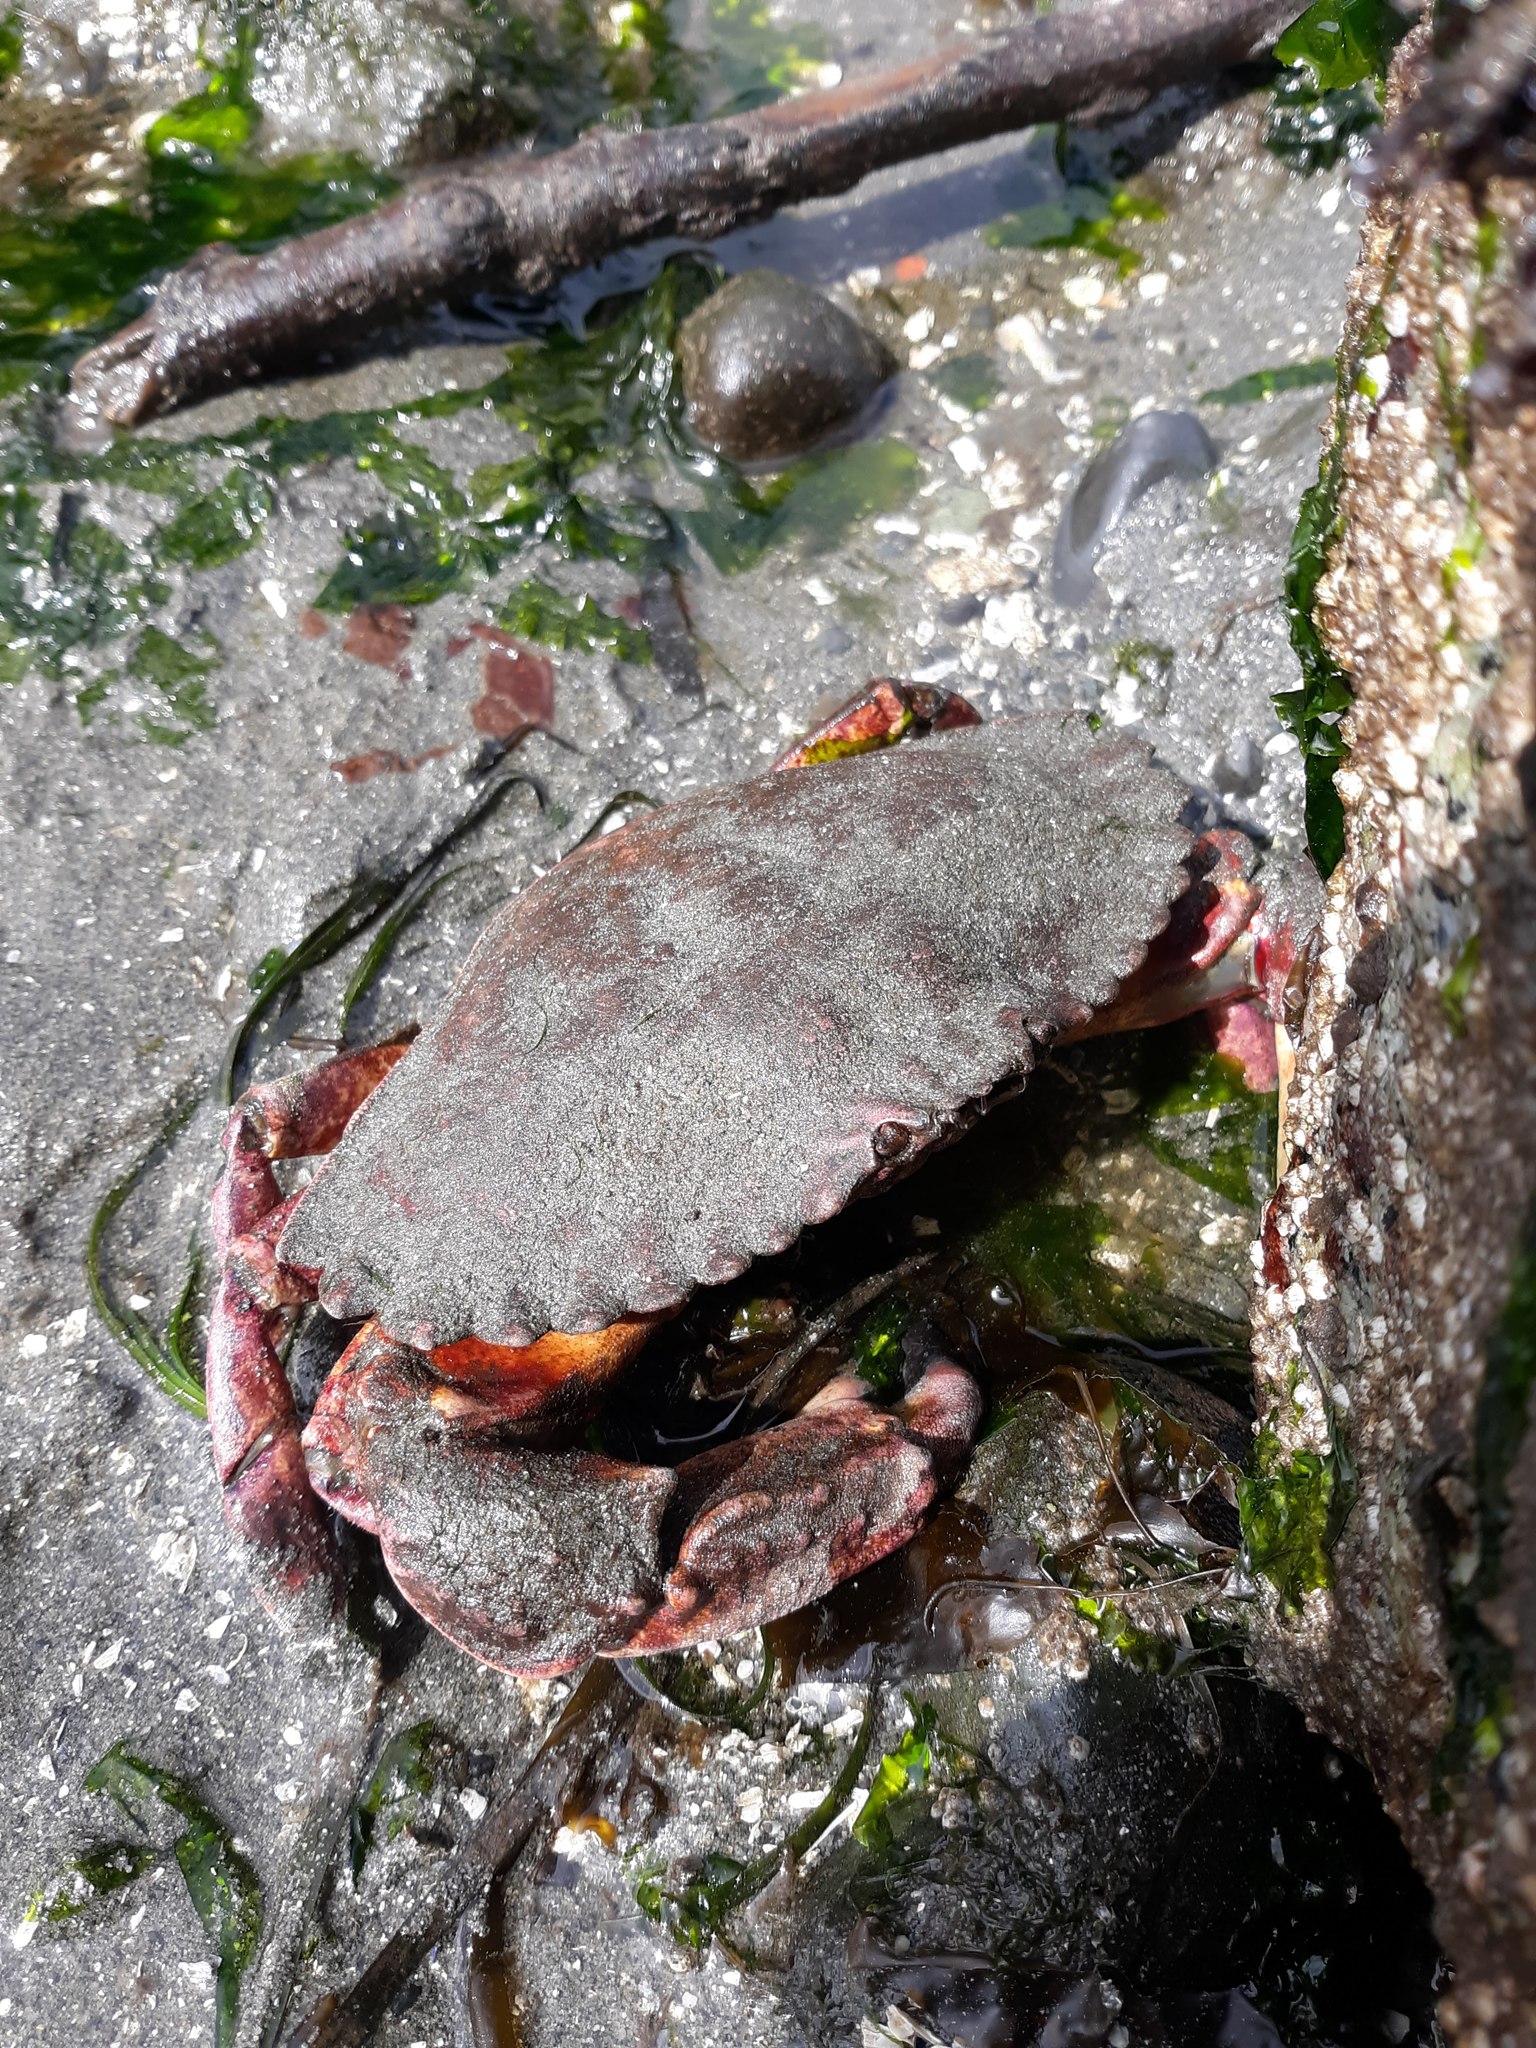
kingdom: Animalia
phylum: Arthropoda
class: Malacostraca
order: Decapoda
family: Cancridae
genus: Cancer
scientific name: Cancer productus
